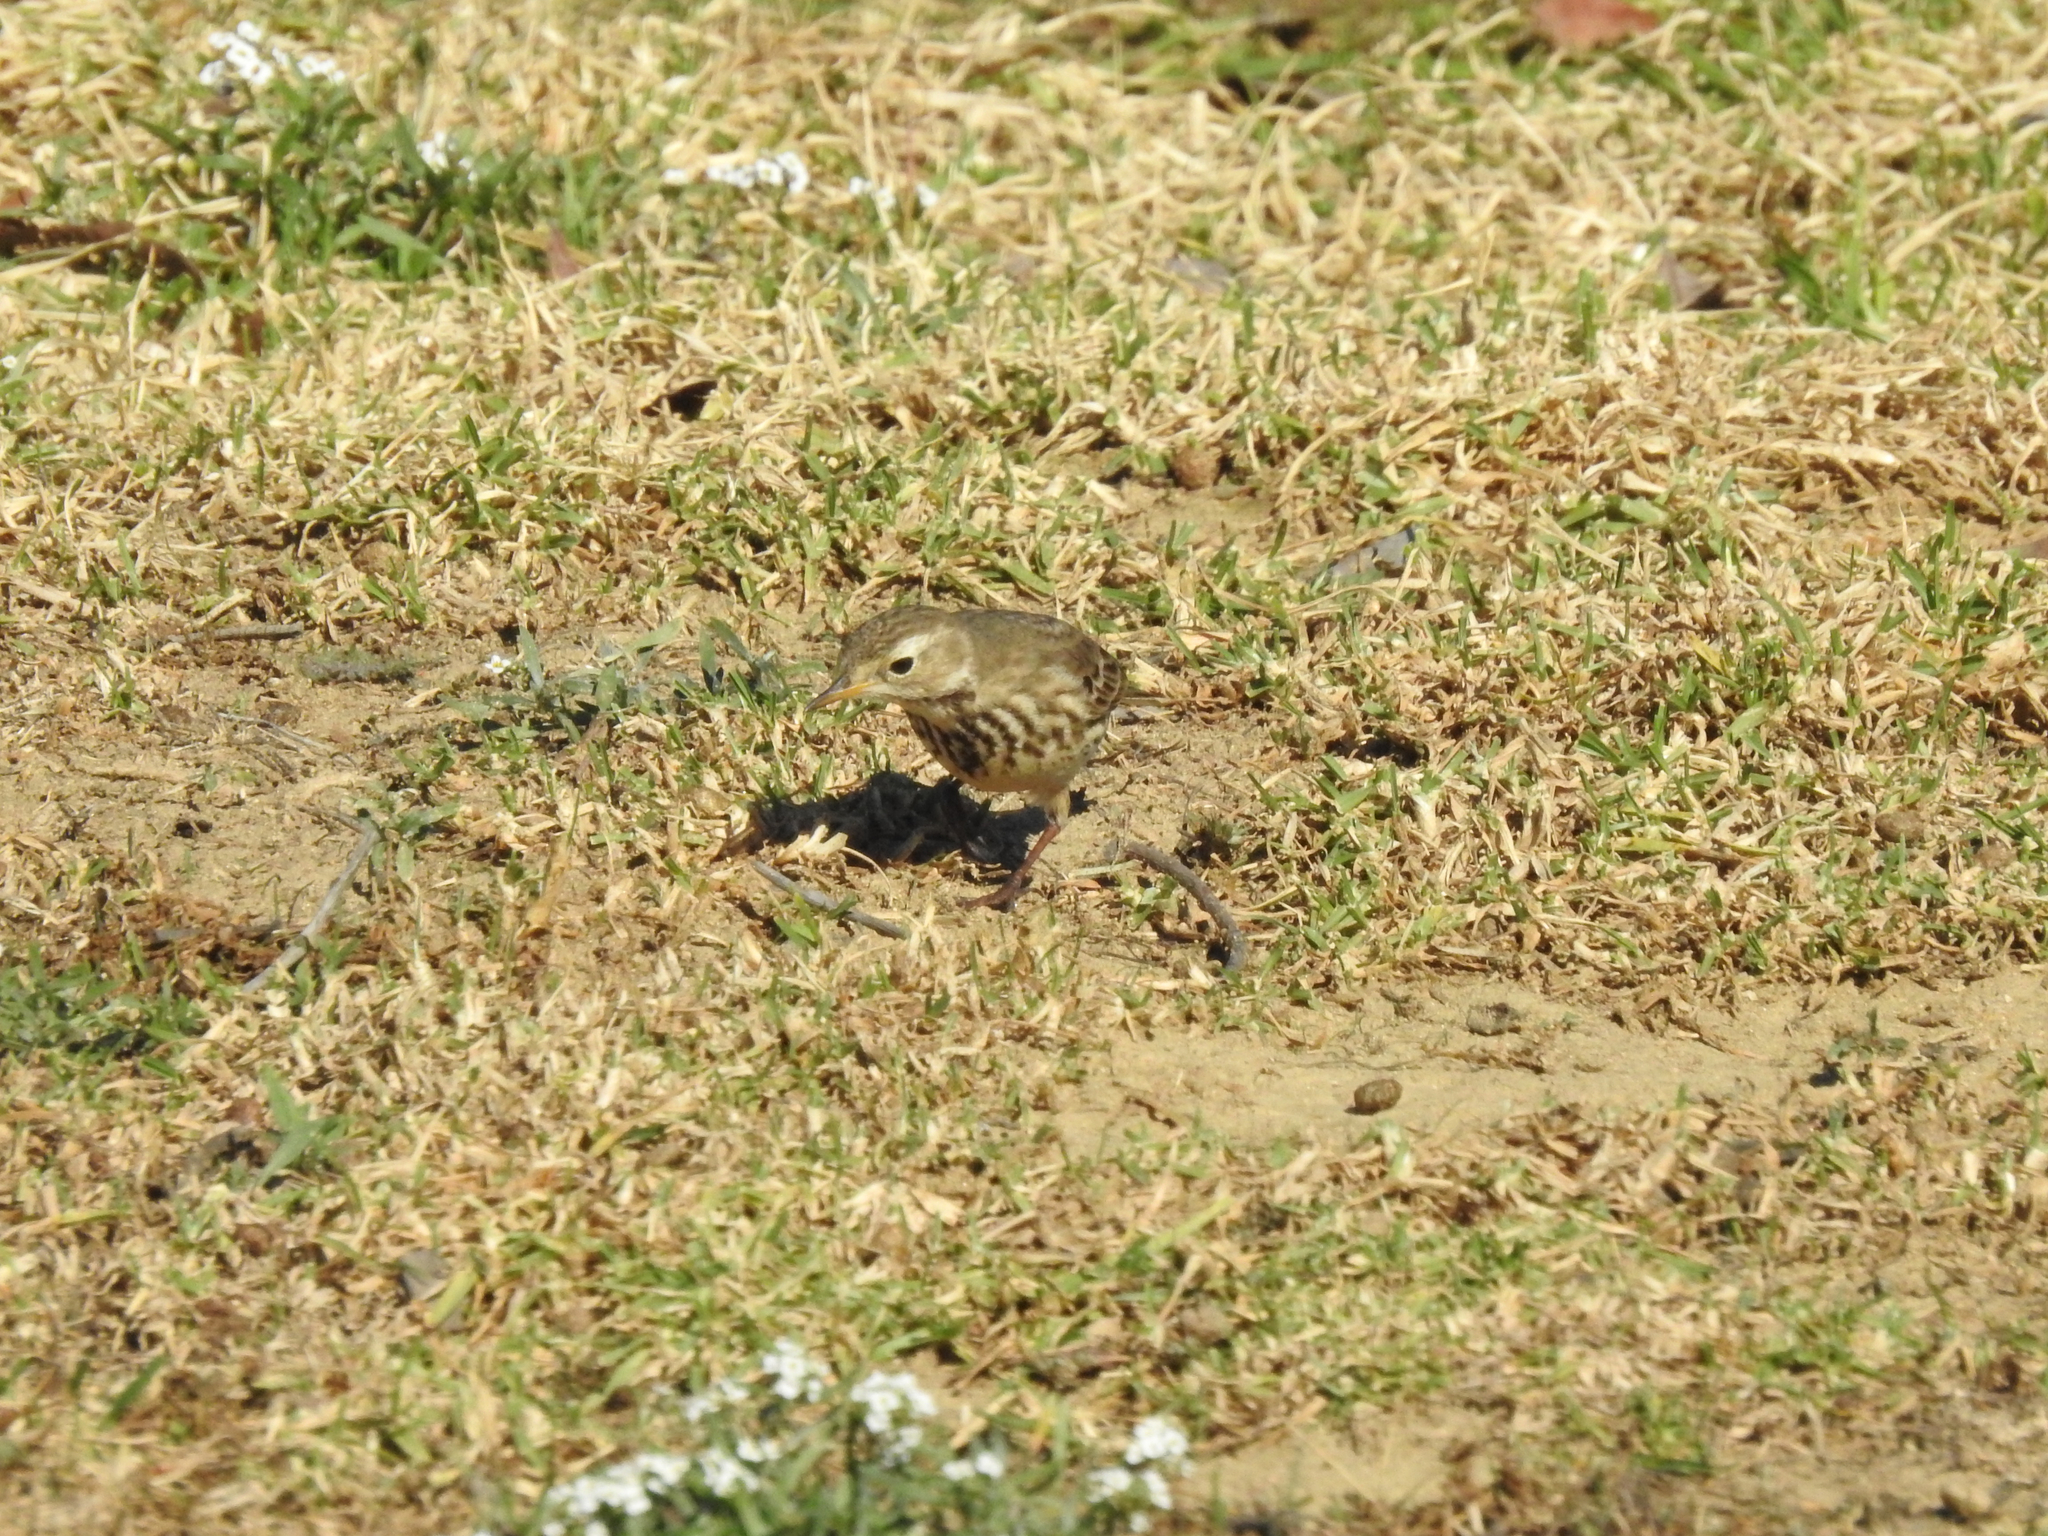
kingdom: Animalia
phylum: Chordata
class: Aves
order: Passeriformes
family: Motacillidae
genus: Anthus
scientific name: Anthus rubescens
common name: Buff-bellied pipit
